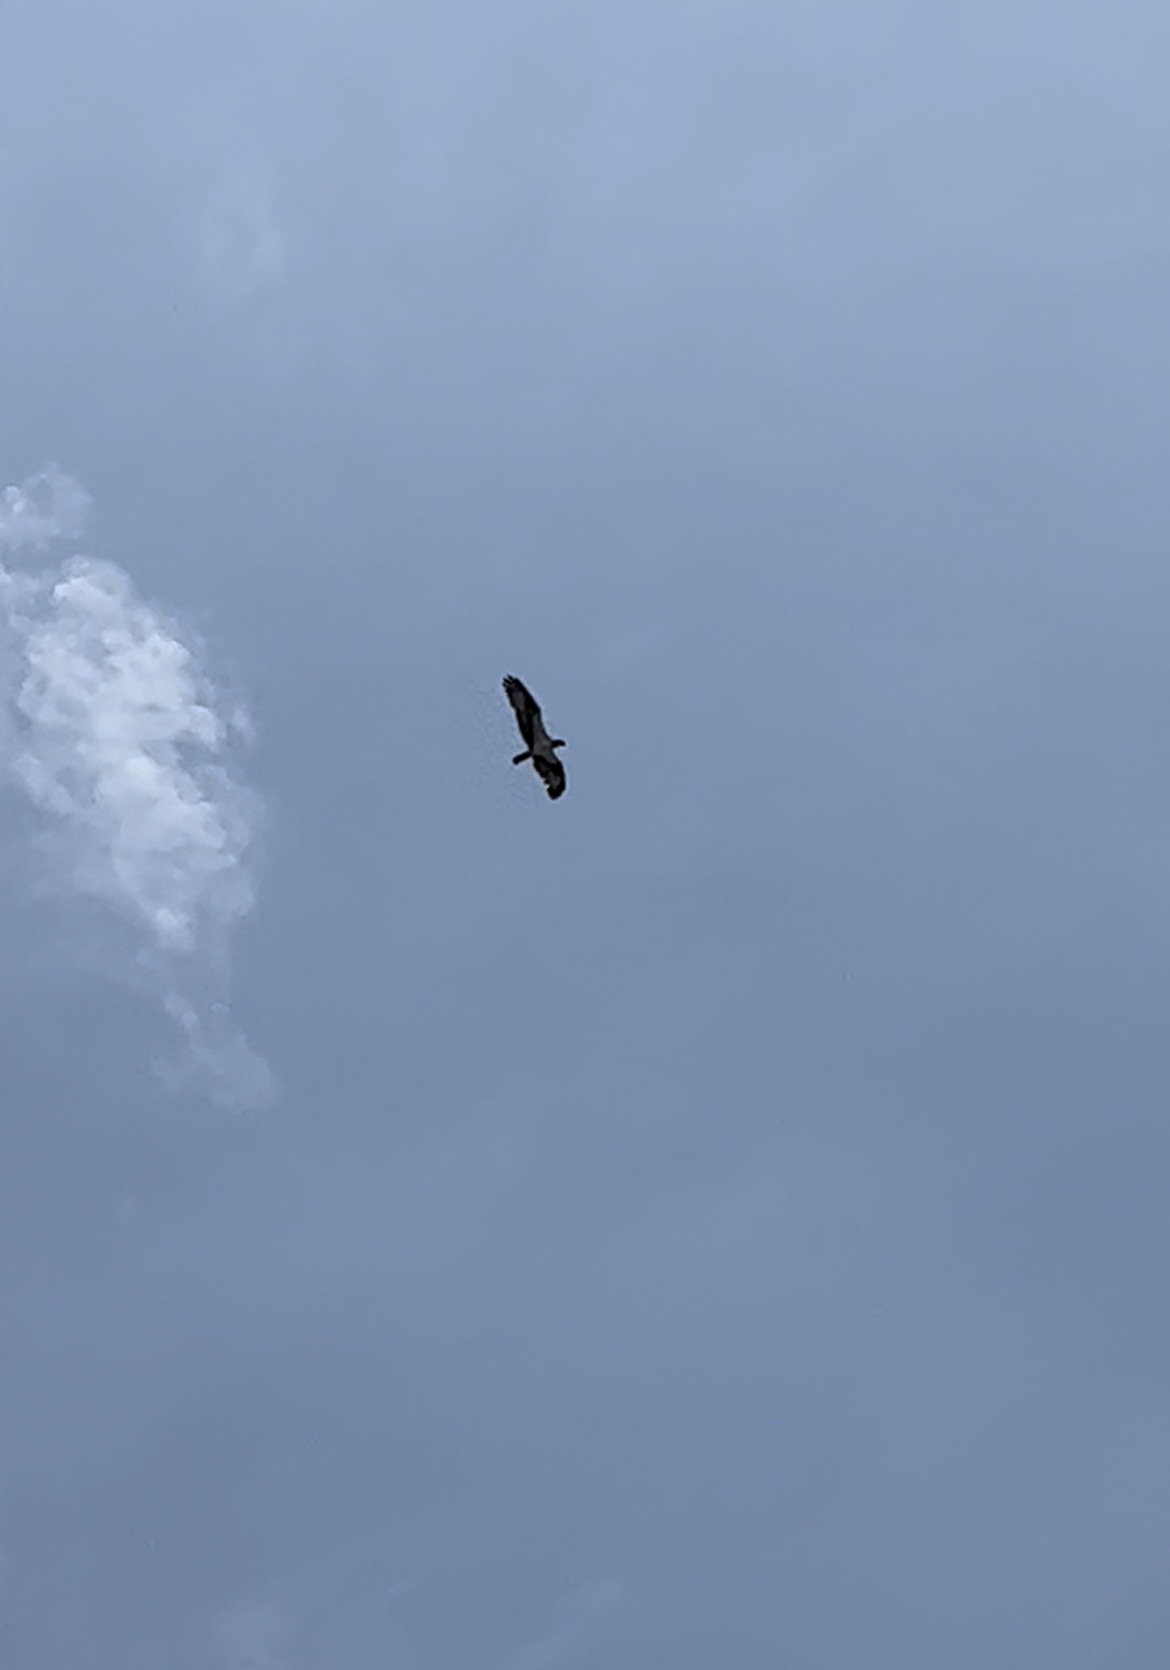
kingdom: Animalia
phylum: Chordata
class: Aves
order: Accipitriformes
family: Pandionidae
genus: Pandion
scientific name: Pandion haliaetus
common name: Osprey
